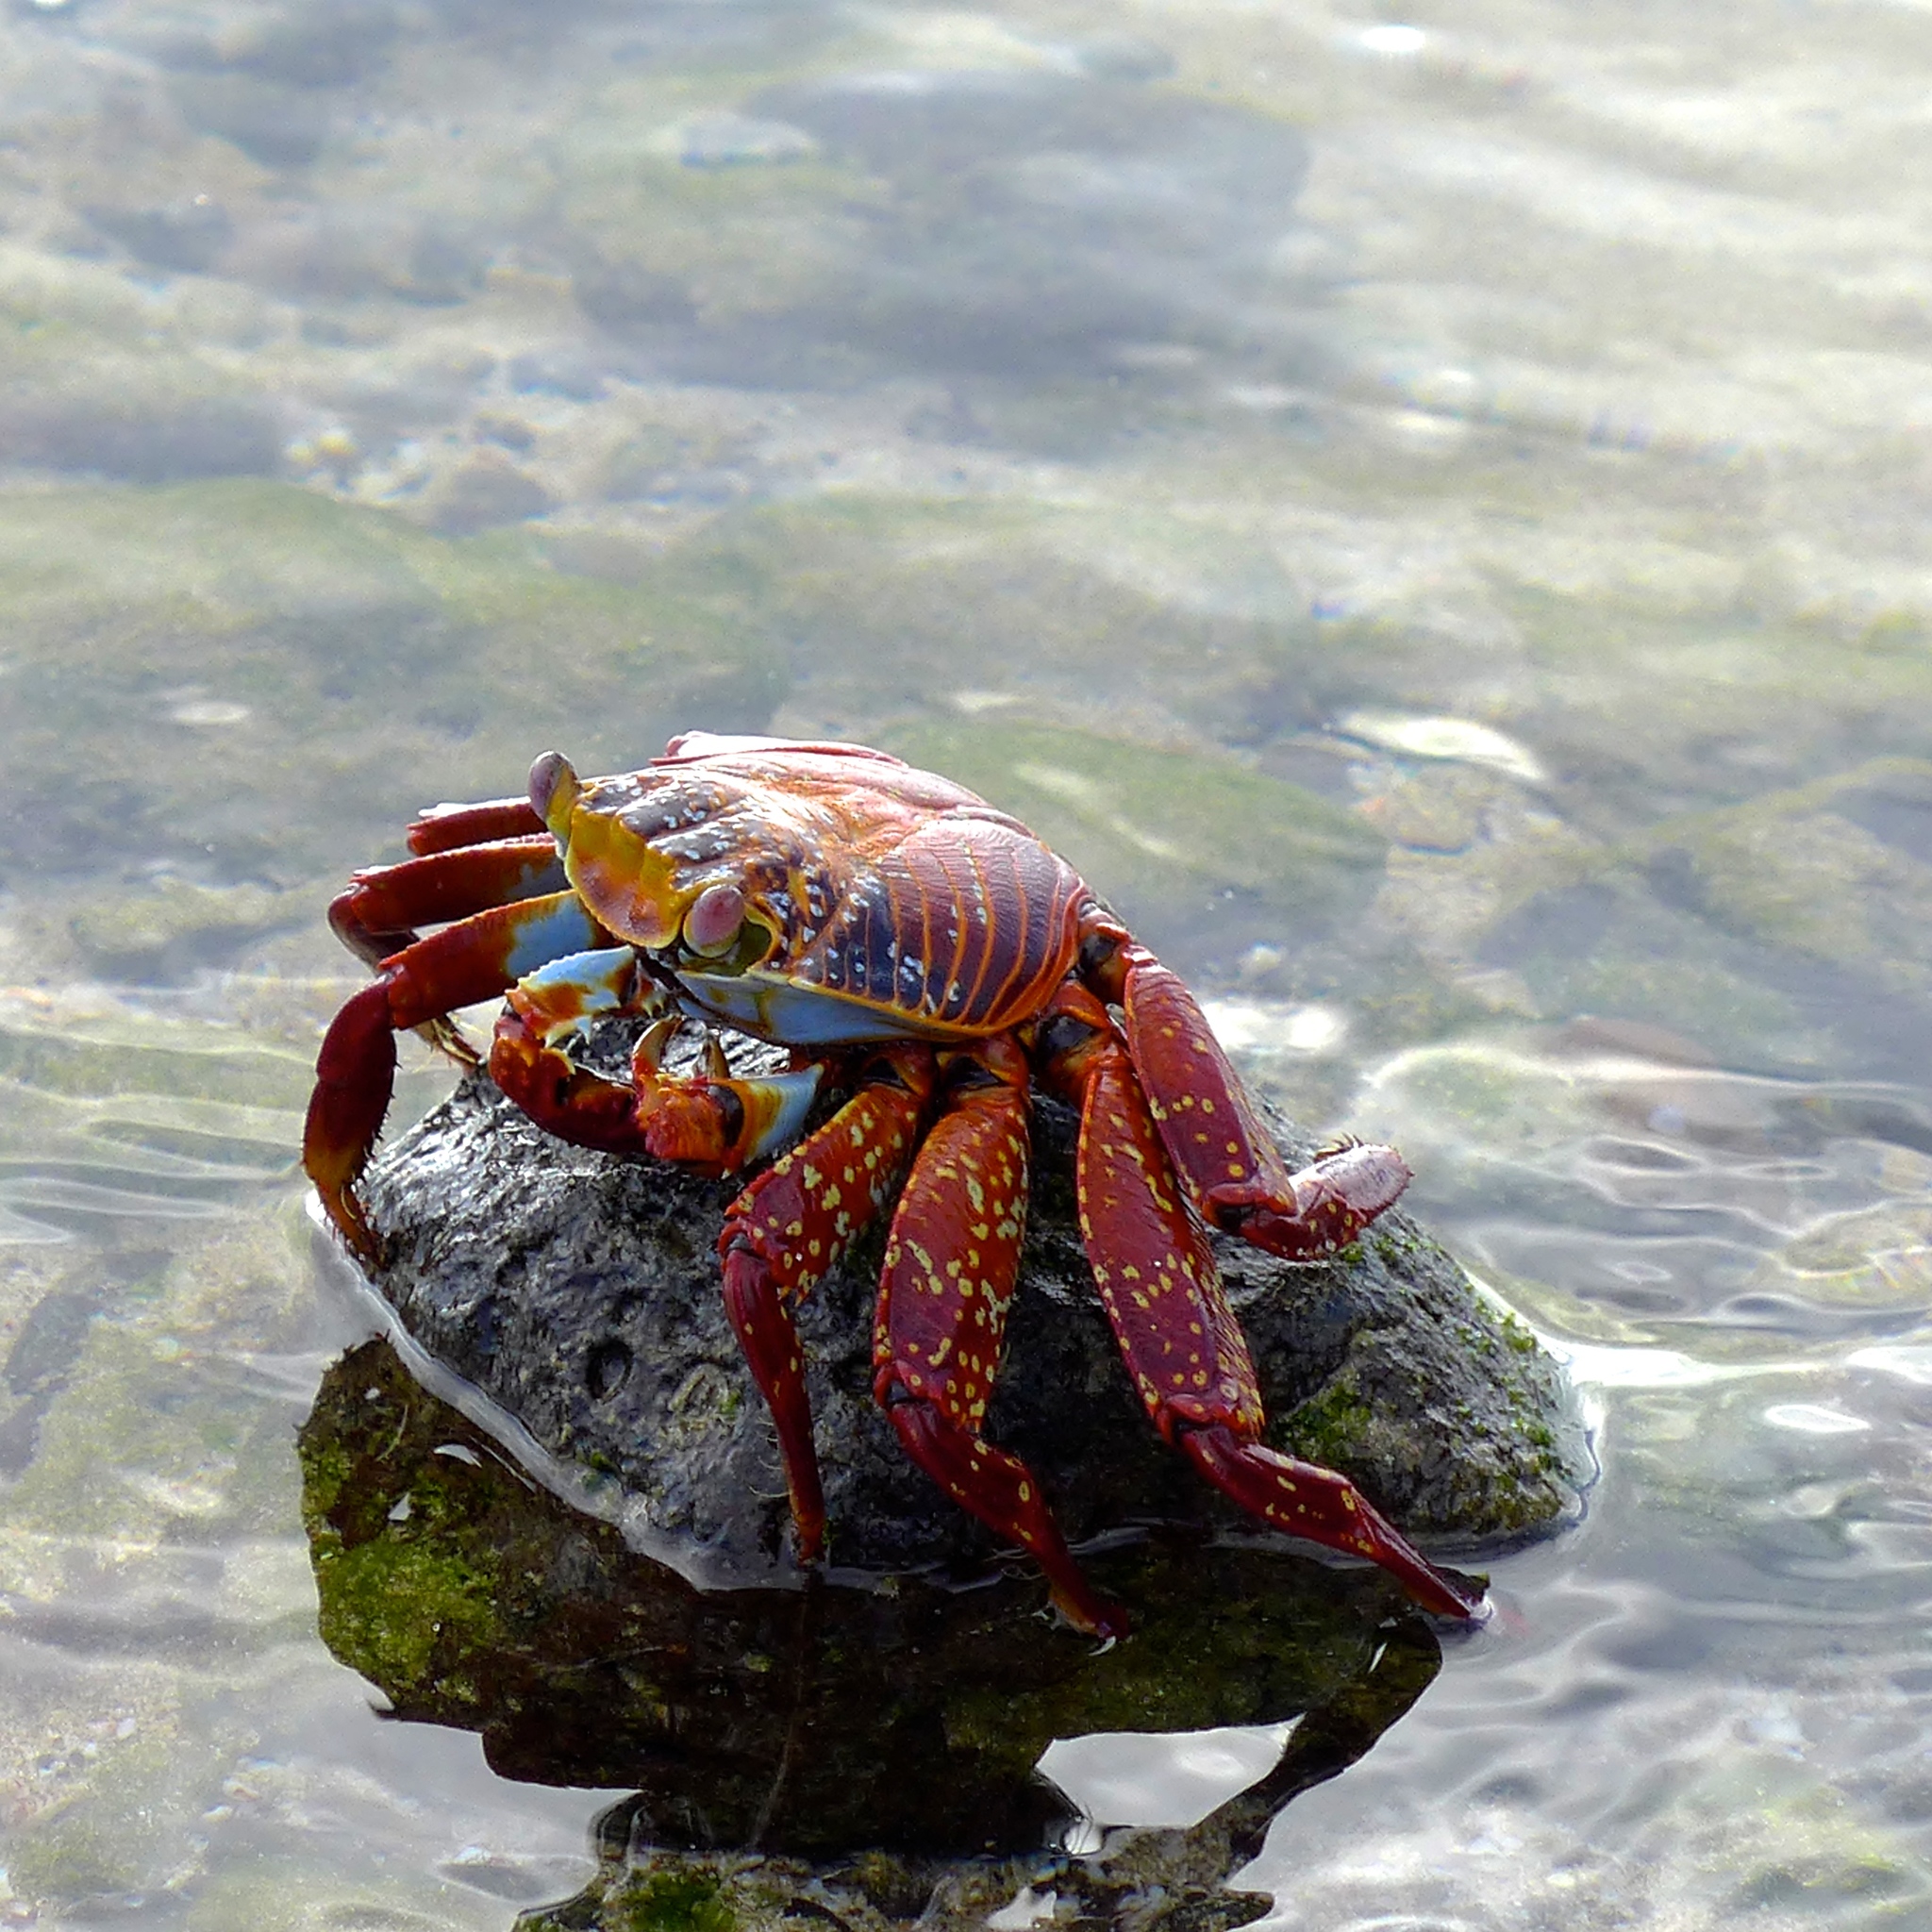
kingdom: Animalia
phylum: Arthropoda
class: Malacostraca
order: Decapoda
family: Grapsidae
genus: Grapsus
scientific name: Grapsus grapsus
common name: Sally lightfoot
